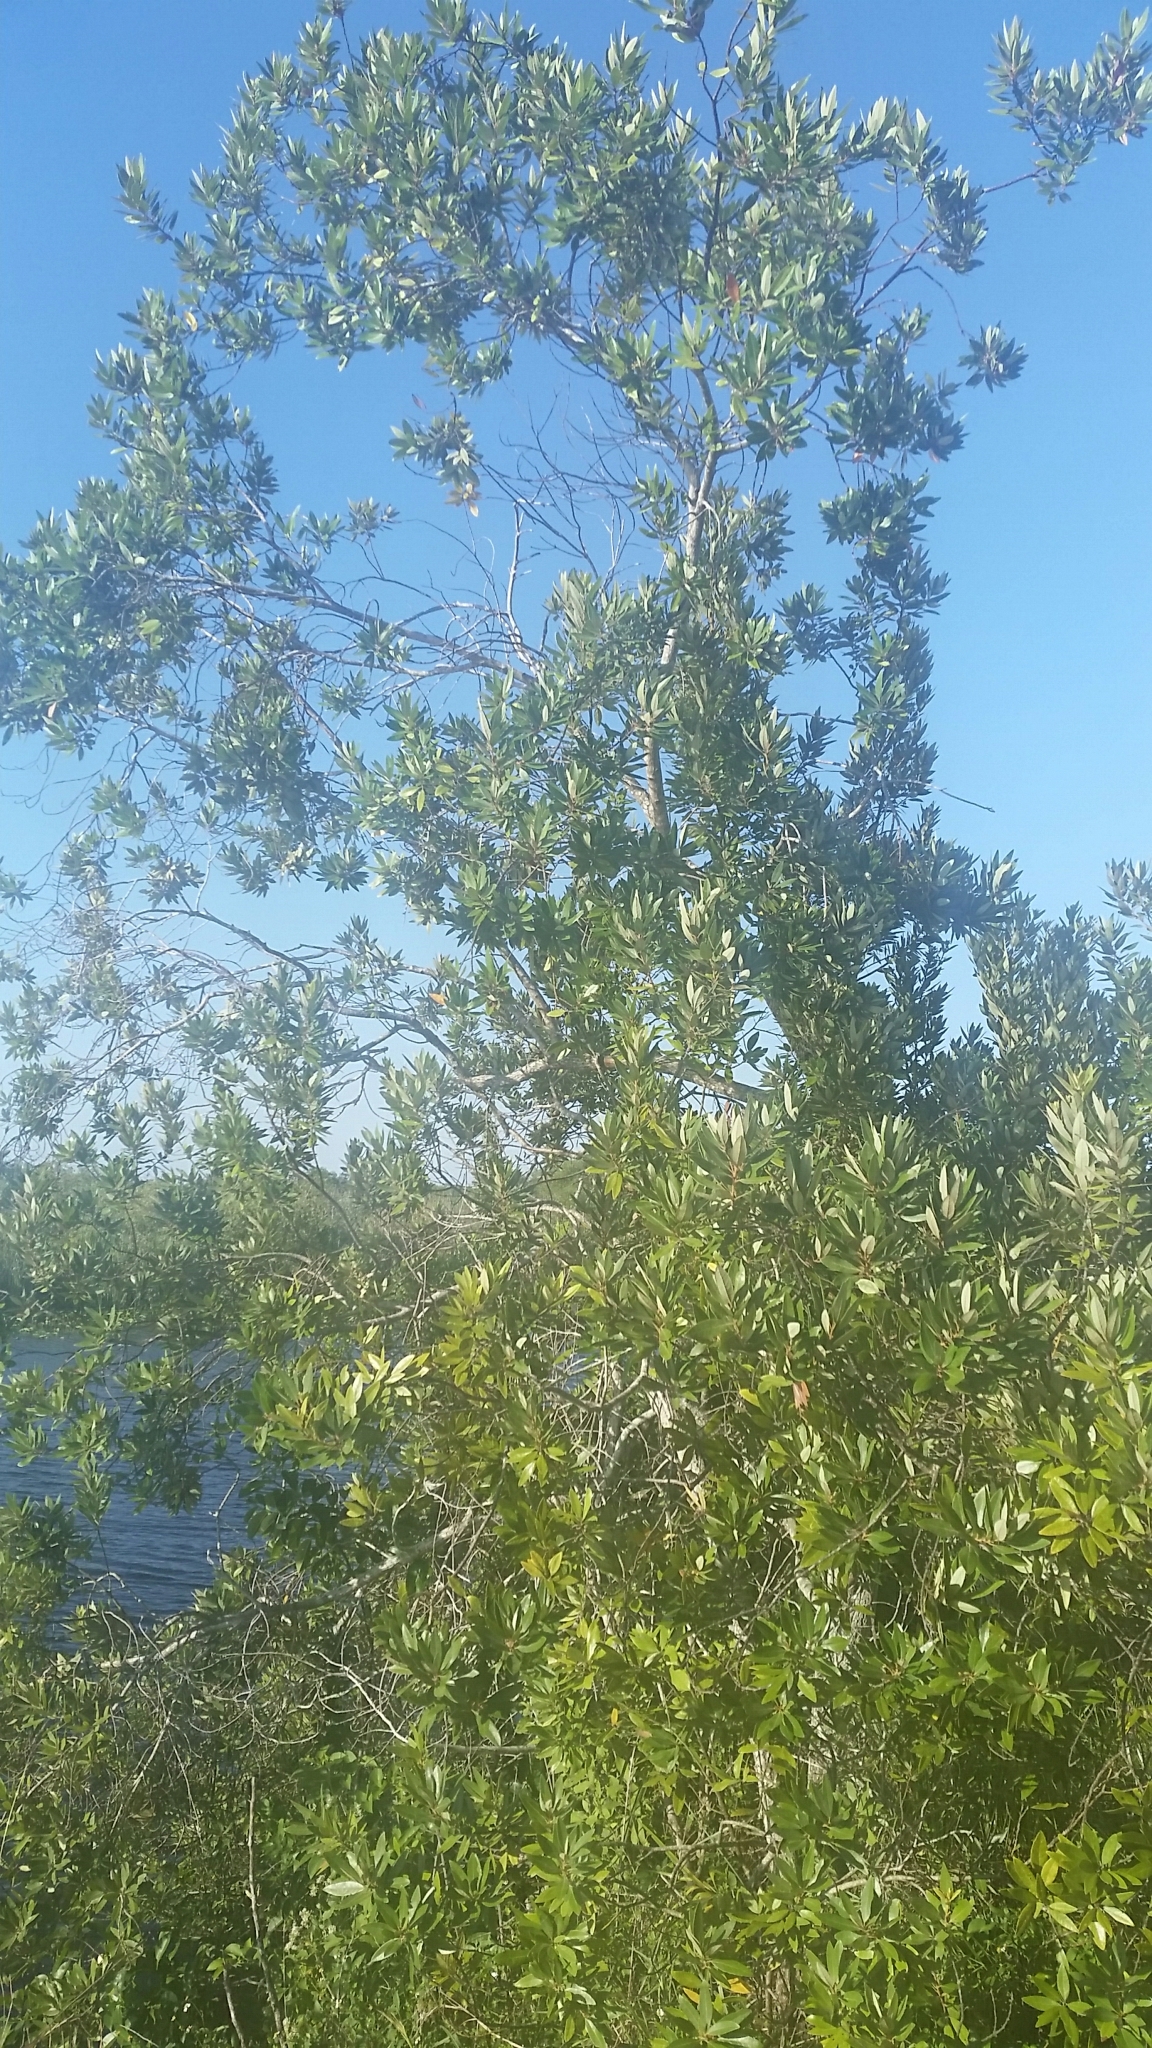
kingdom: Plantae
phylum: Tracheophyta
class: Magnoliopsida
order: Laurales
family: Lauraceae
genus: Persea
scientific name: Persea palustris
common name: Swampbay
